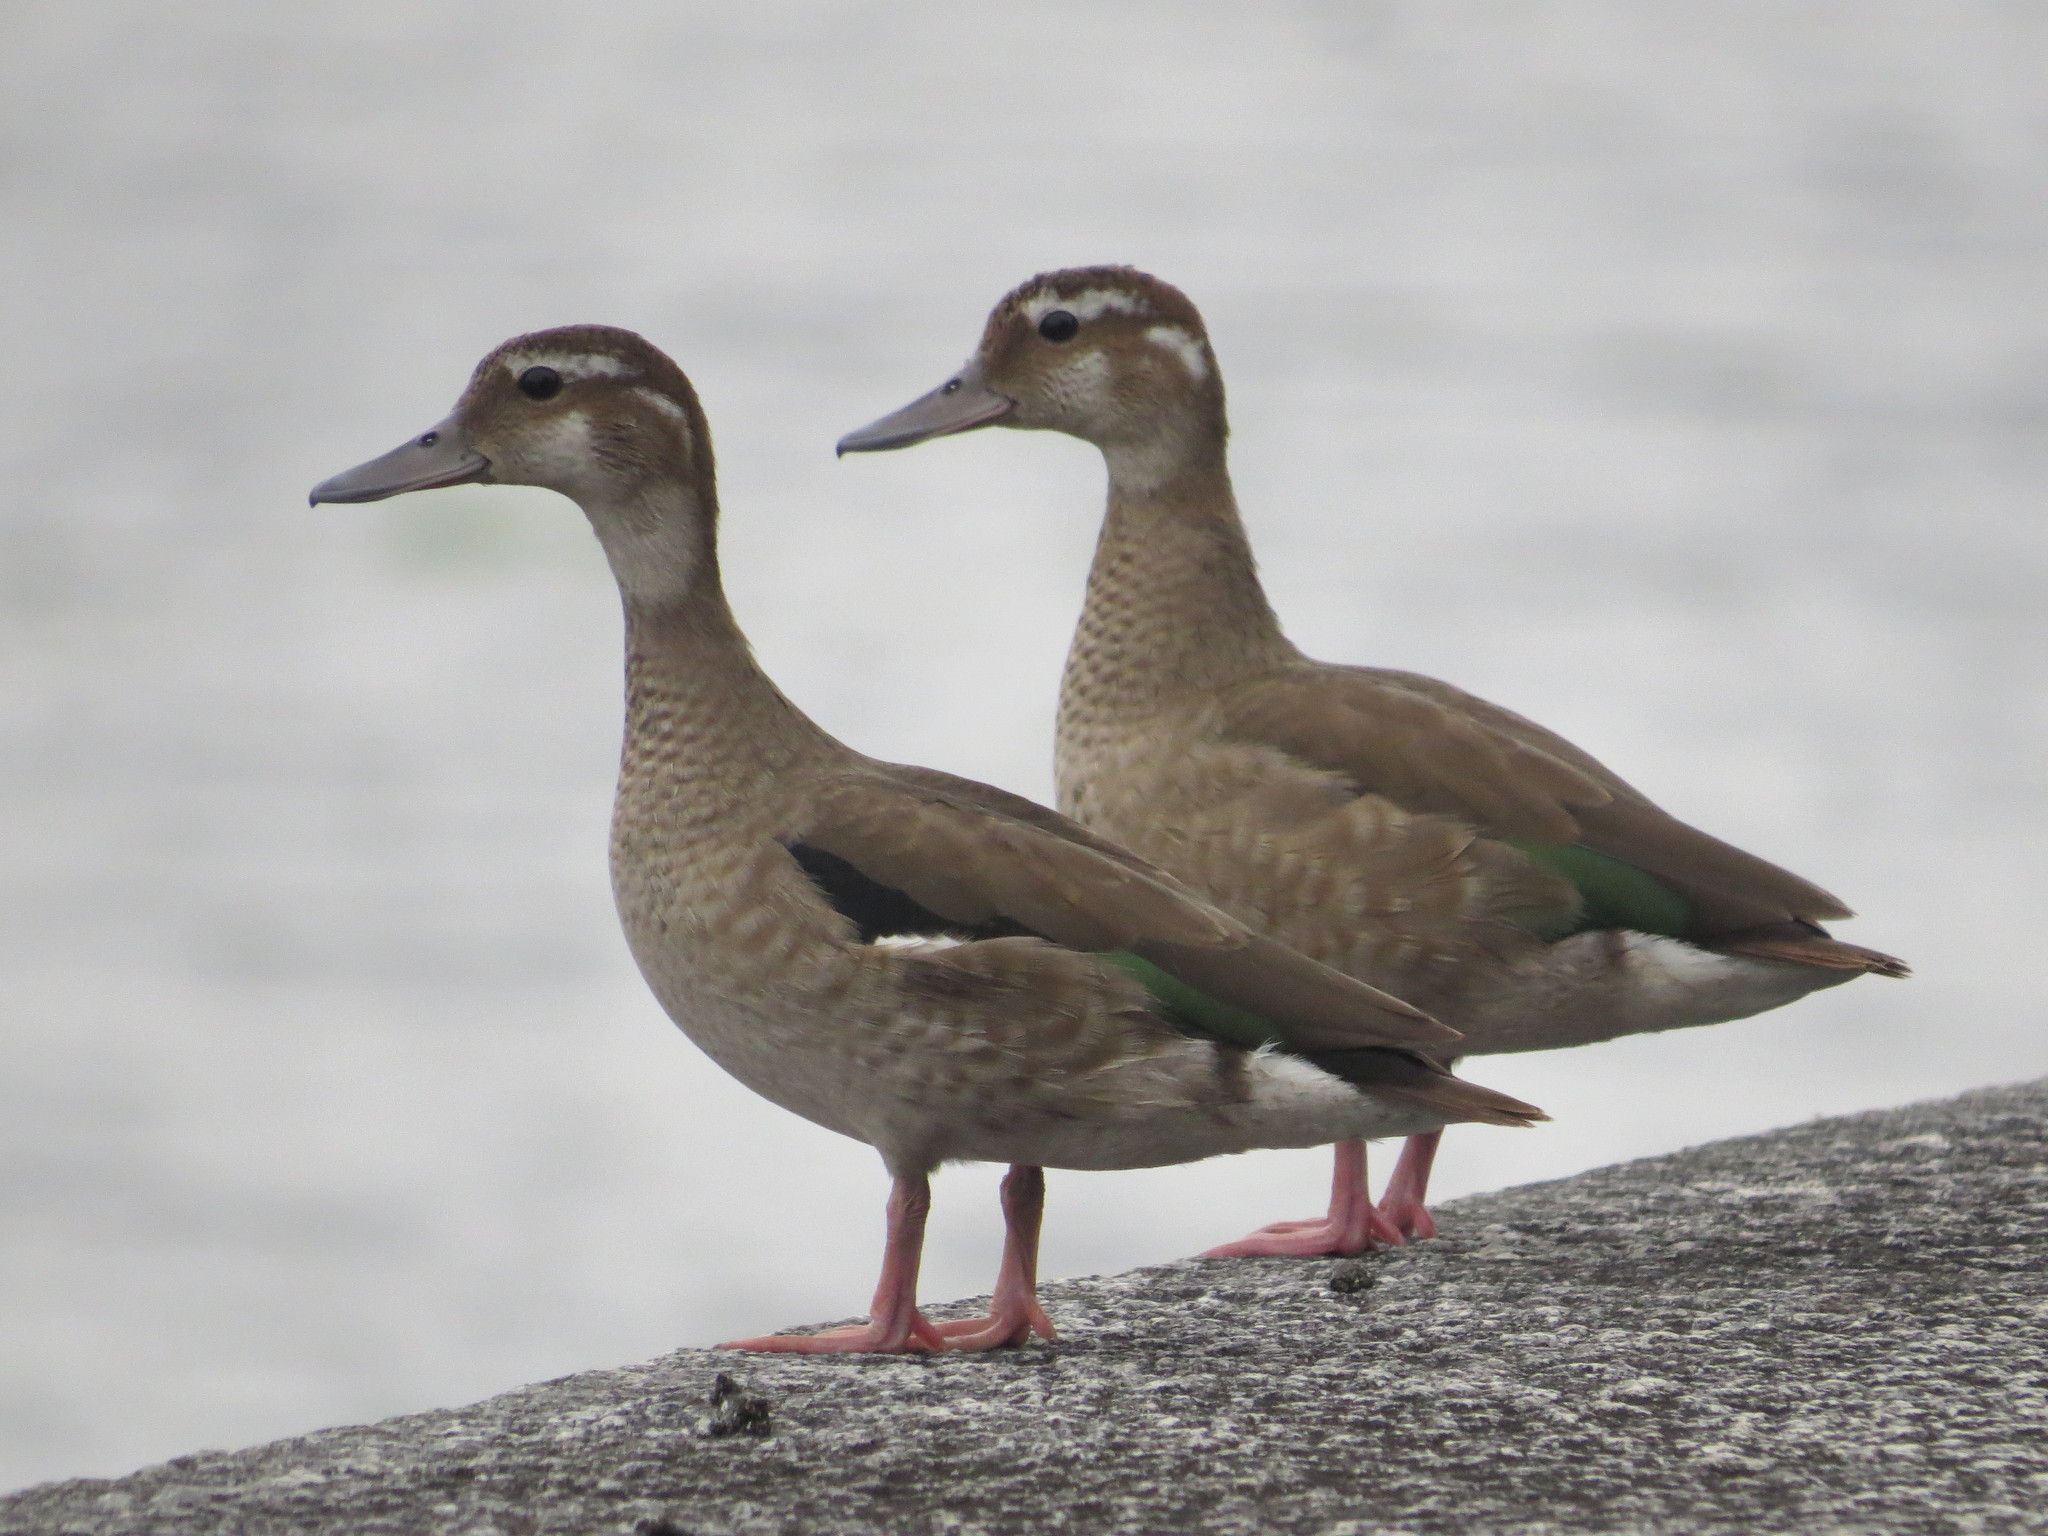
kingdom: Animalia
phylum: Chordata
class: Aves
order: Anseriformes
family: Anatidae
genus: Amazonetta
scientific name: Amazonetta brasiliensis
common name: Brazilian teal
